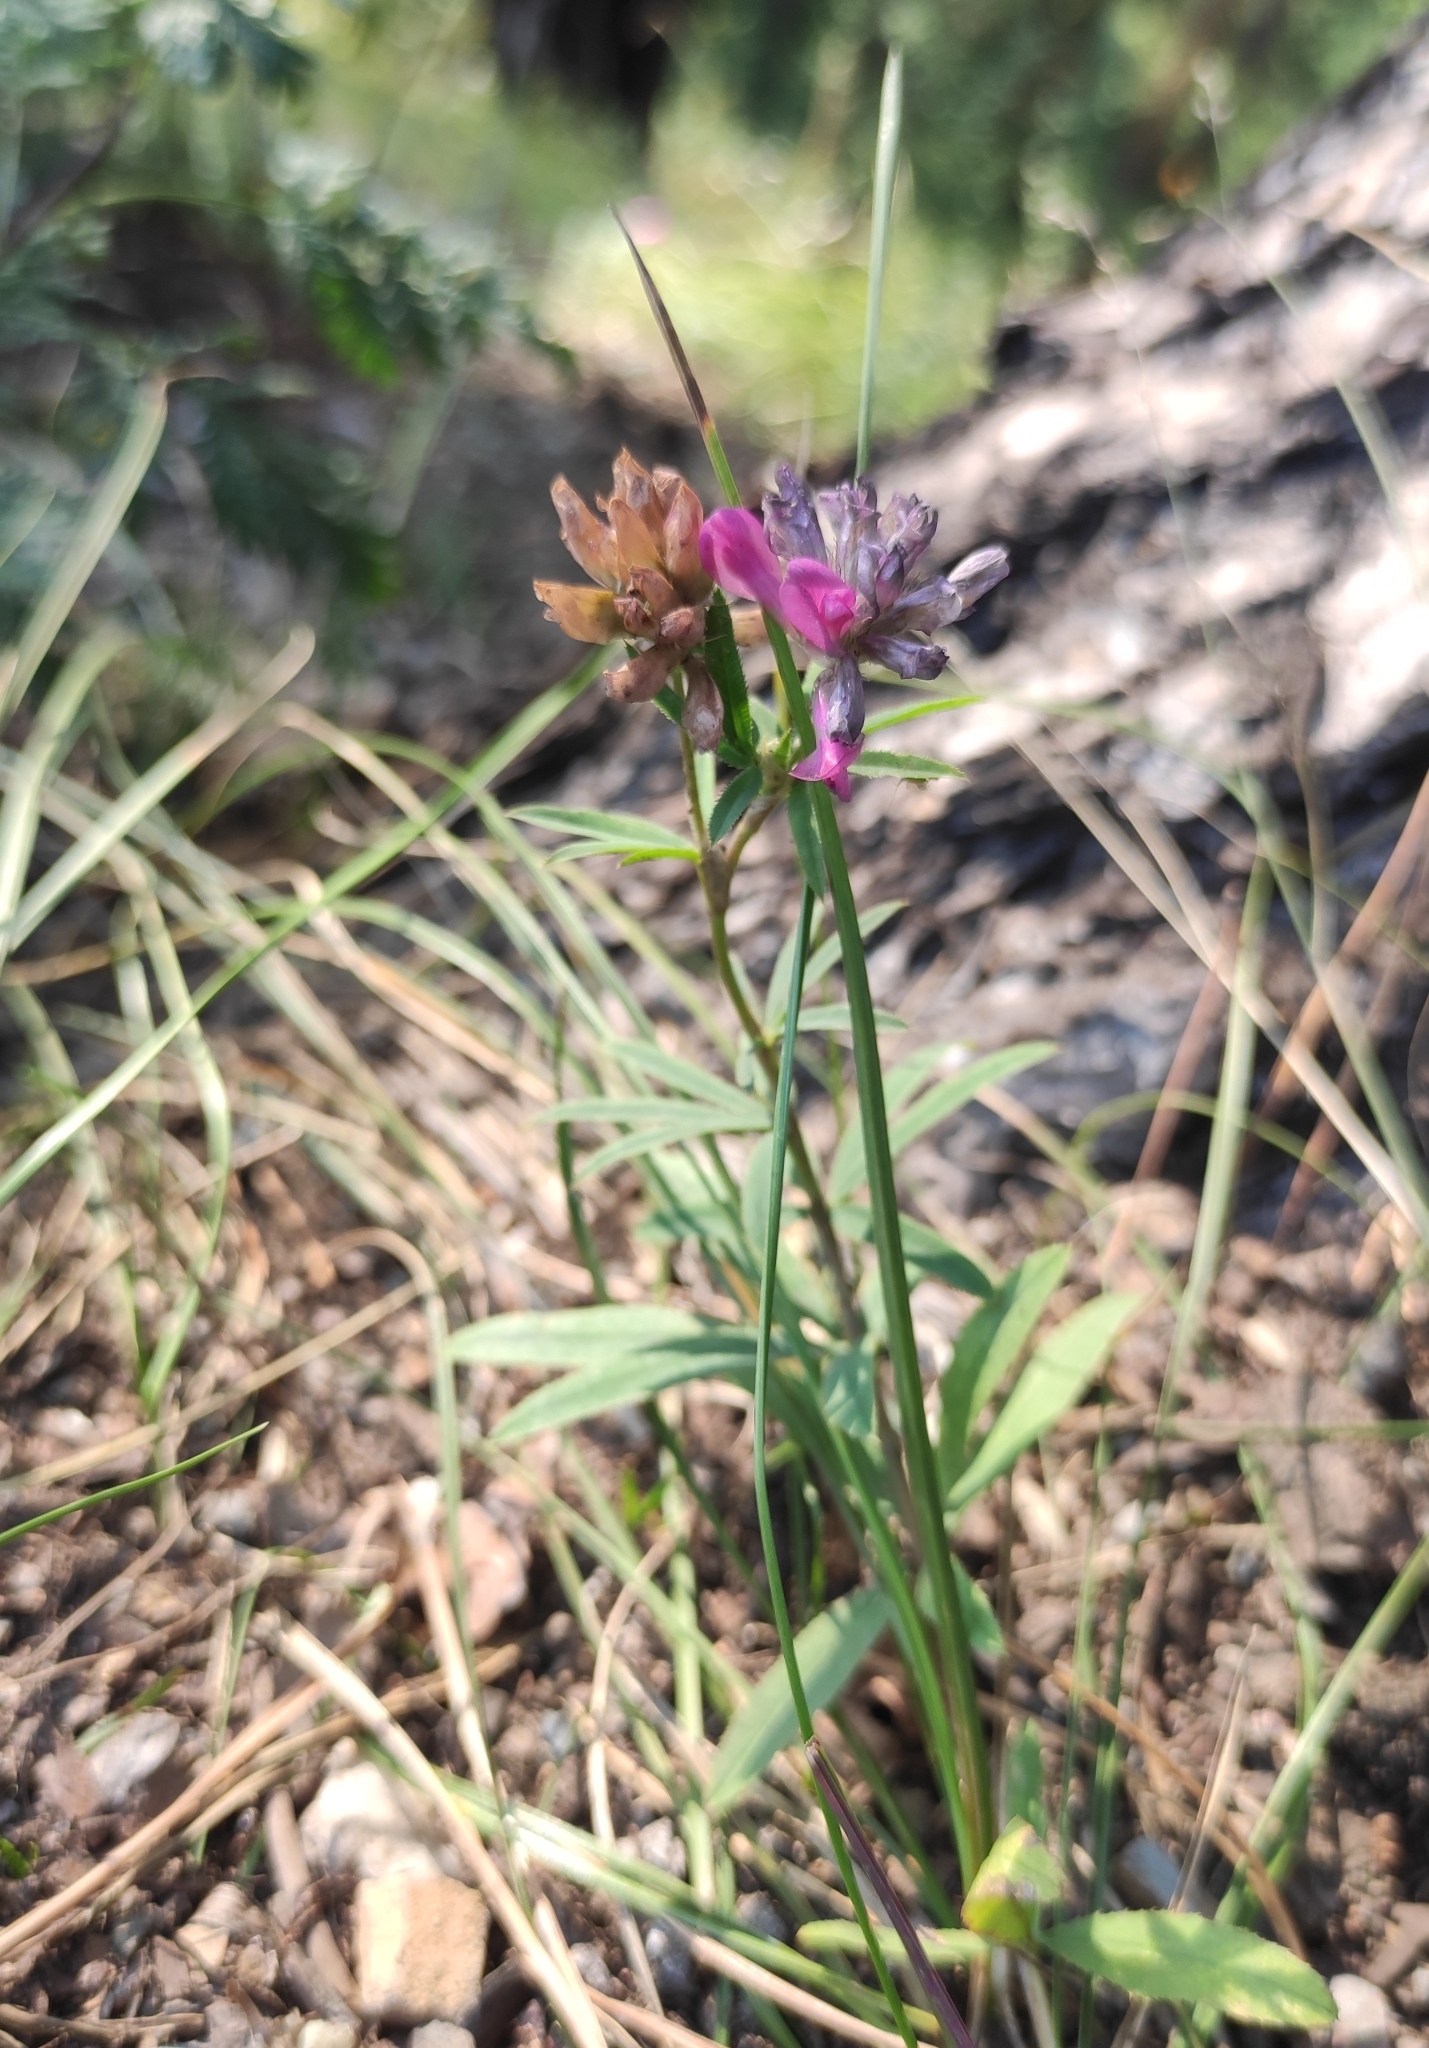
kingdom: Plantae
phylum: Tracheophyta
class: Magnoliopsida
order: Fabales
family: Fabaceae
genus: Trifolium
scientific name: Trifolium lupinaster
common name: Lupine clover
